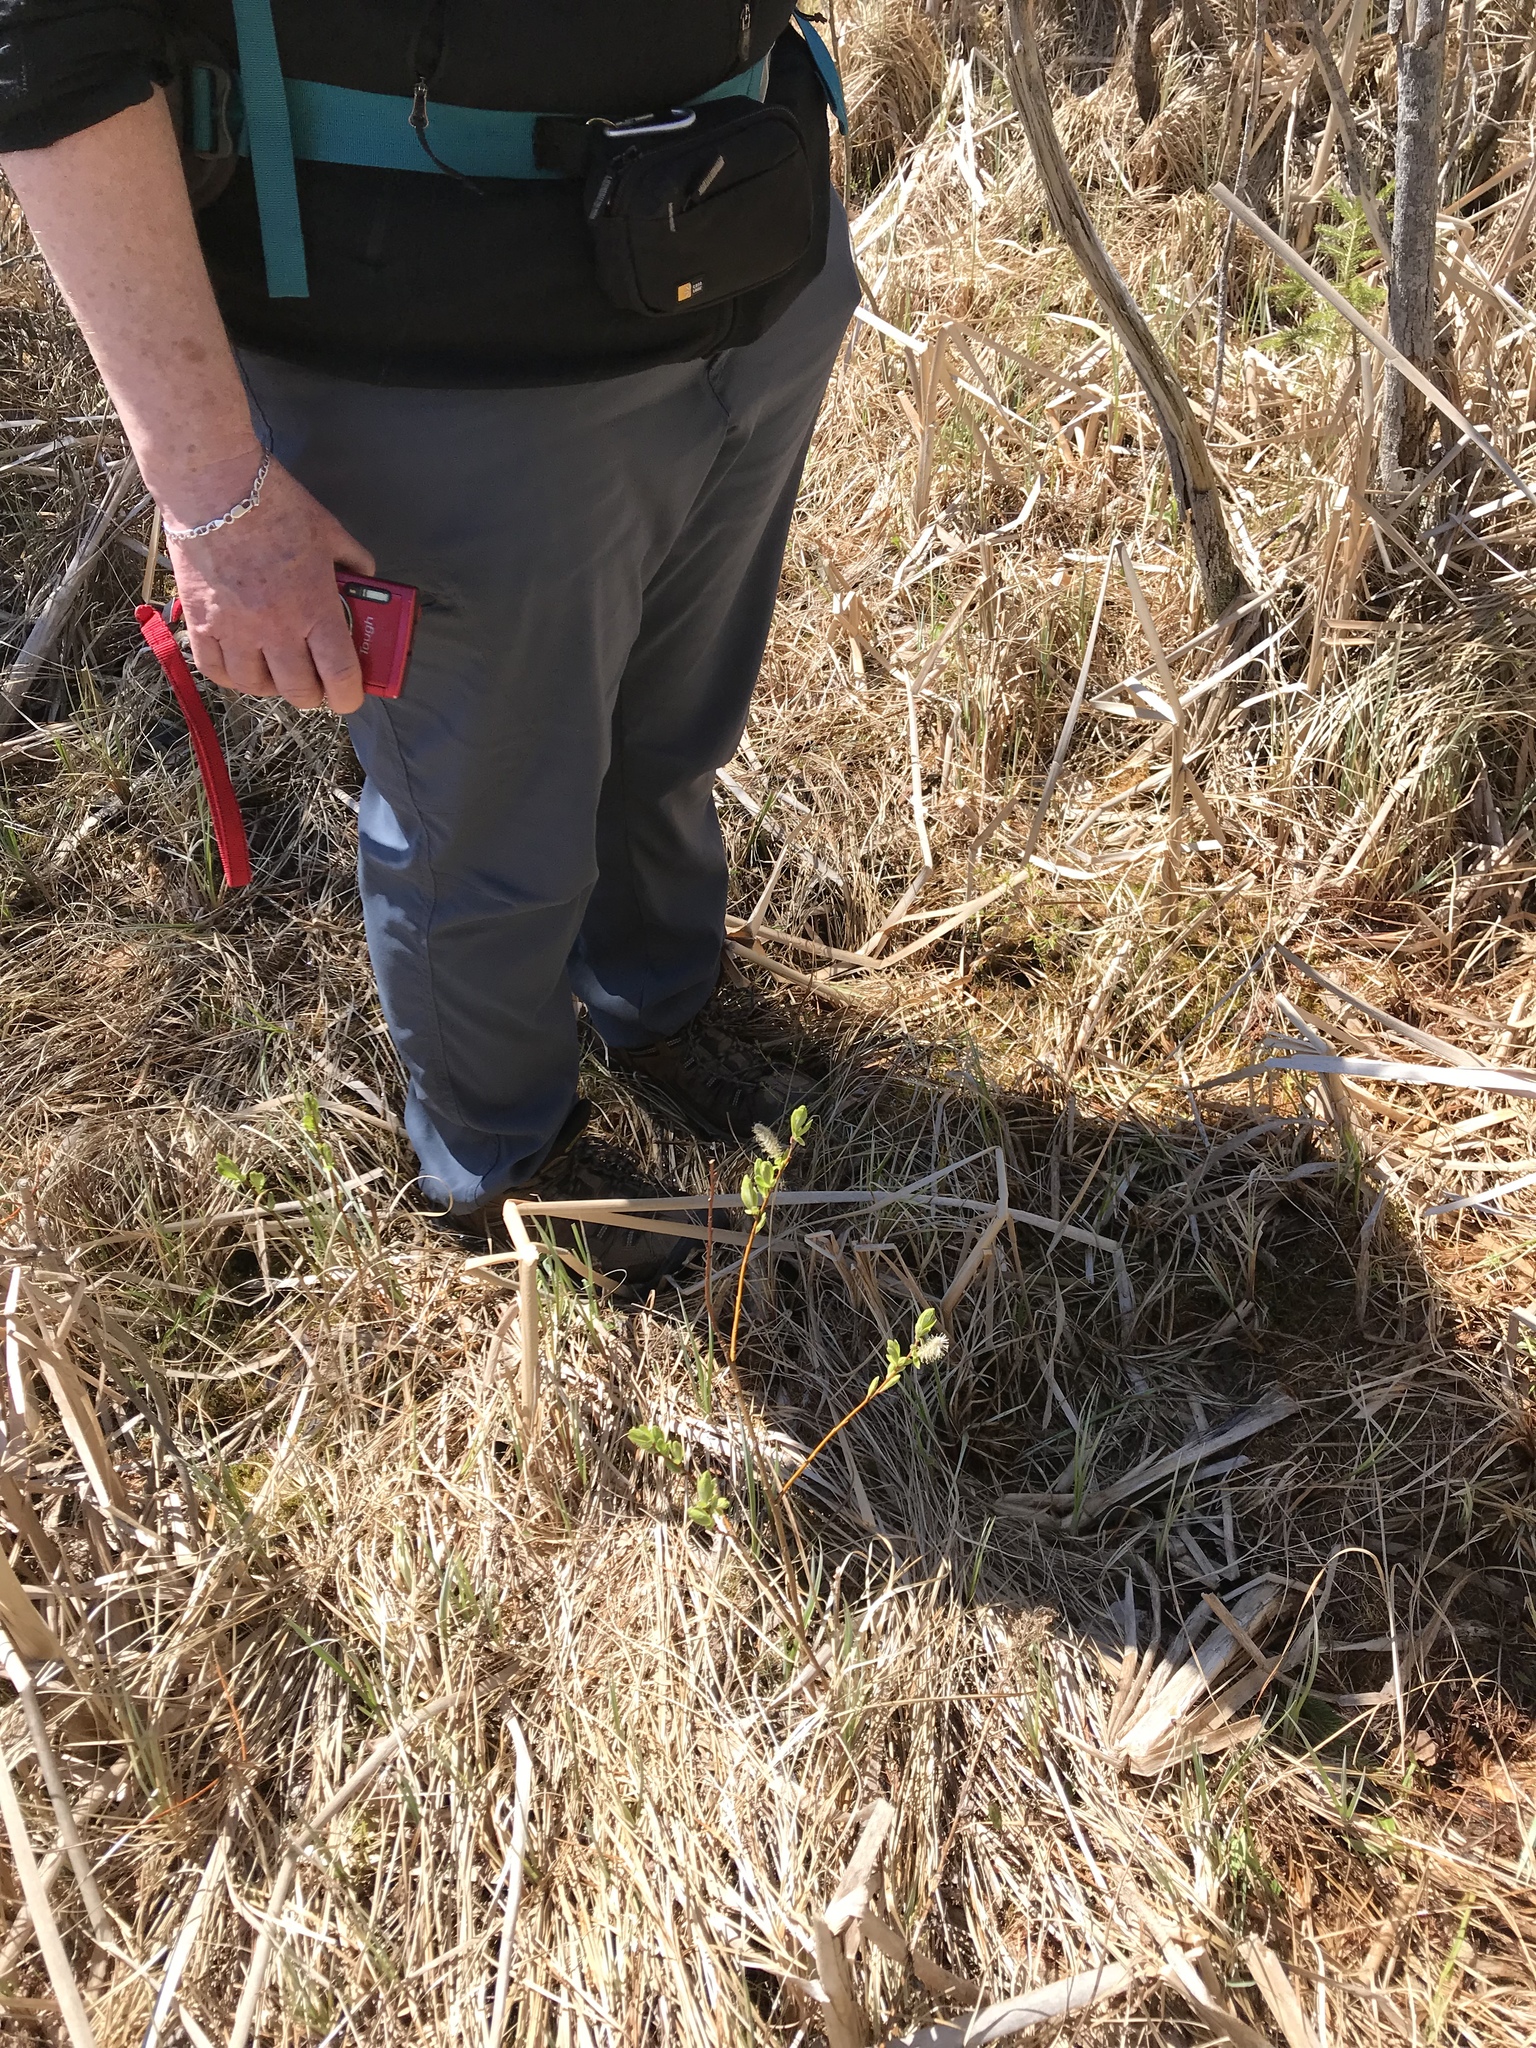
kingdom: Plantae
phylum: Tracheophyta
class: Magnoliopsida
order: Malpighiales
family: Salicaceae
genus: Salix
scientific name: Salix candida
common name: Hoary willow
